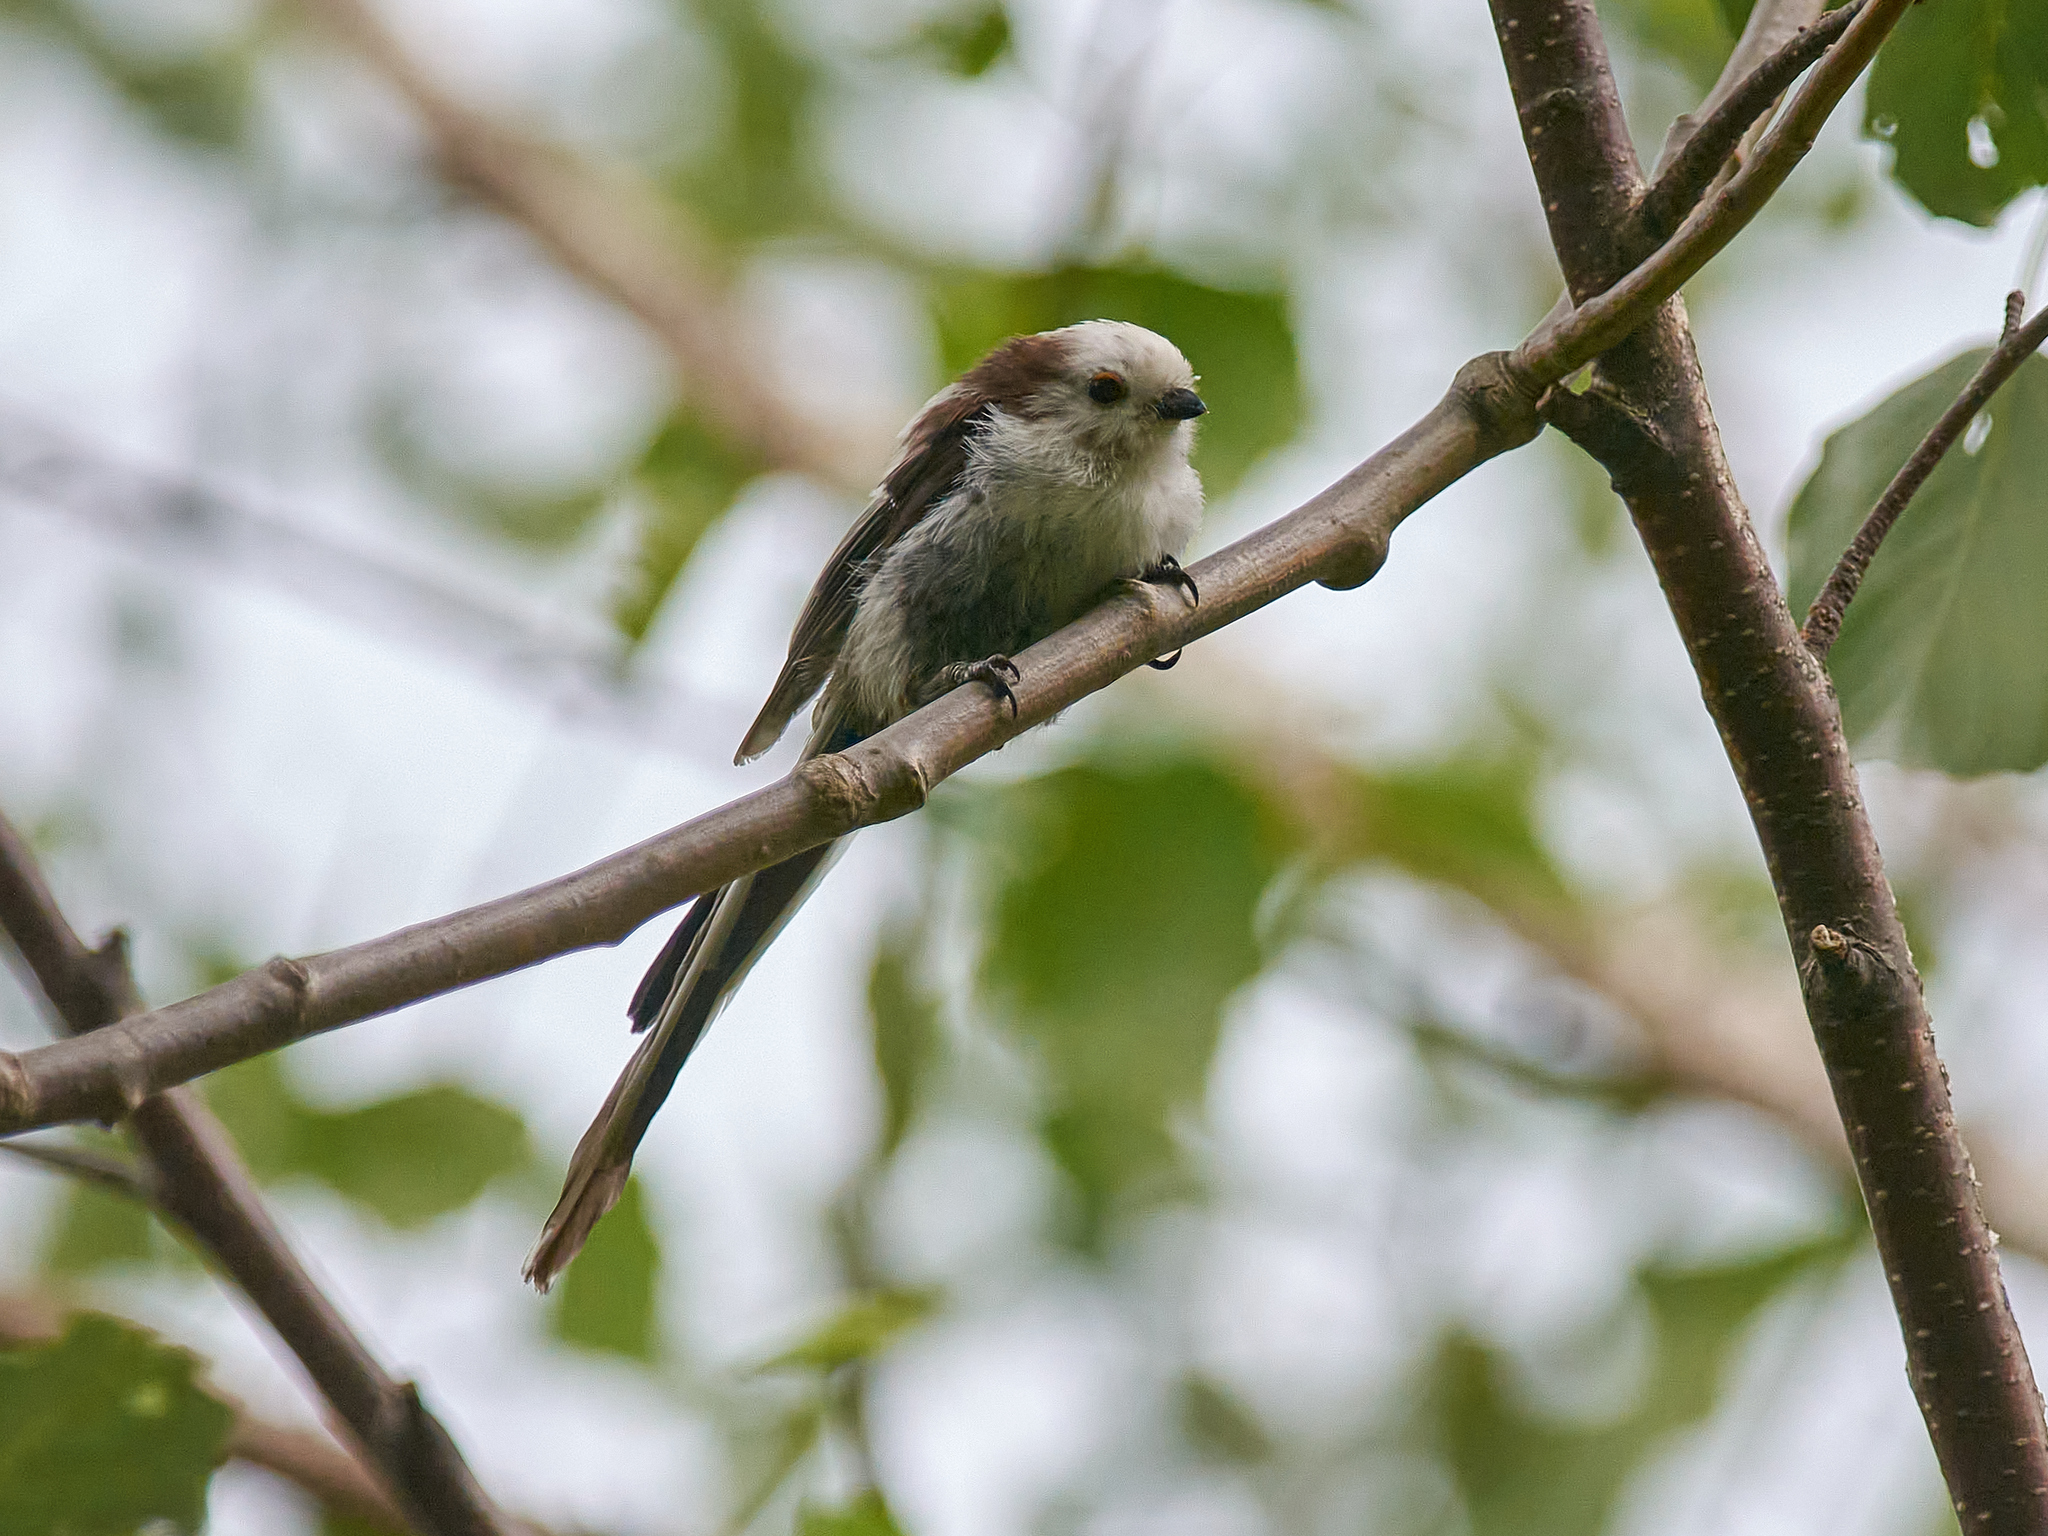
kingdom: Animalia
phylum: Chordata
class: Aves
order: Passeriformes
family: Aegithalidae
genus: Aegithalos
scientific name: Aegithalos caudatus
